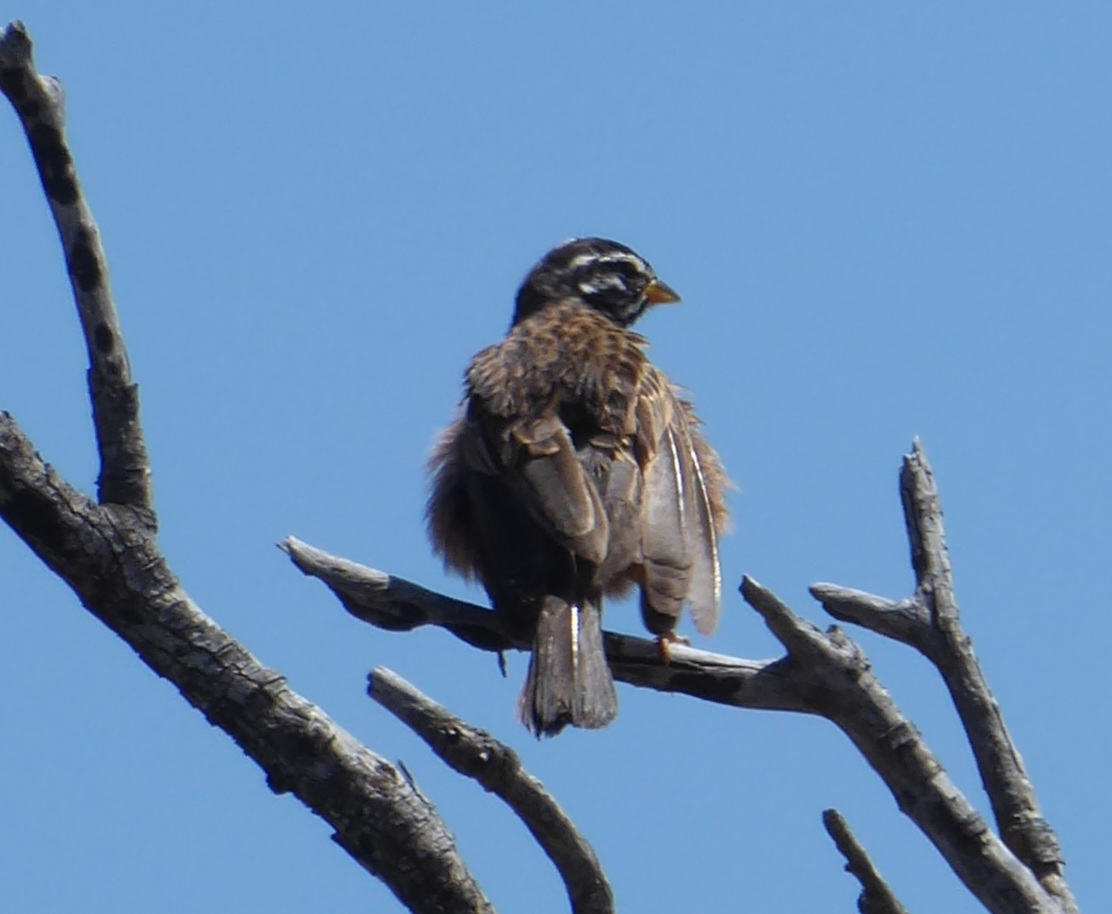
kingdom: Animalia
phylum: Chordata
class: Aves
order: Passeriformes
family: Emberizidae
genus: Emberiza
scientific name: Emberiza tahapisi
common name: Cinnamon-breasted bunting
